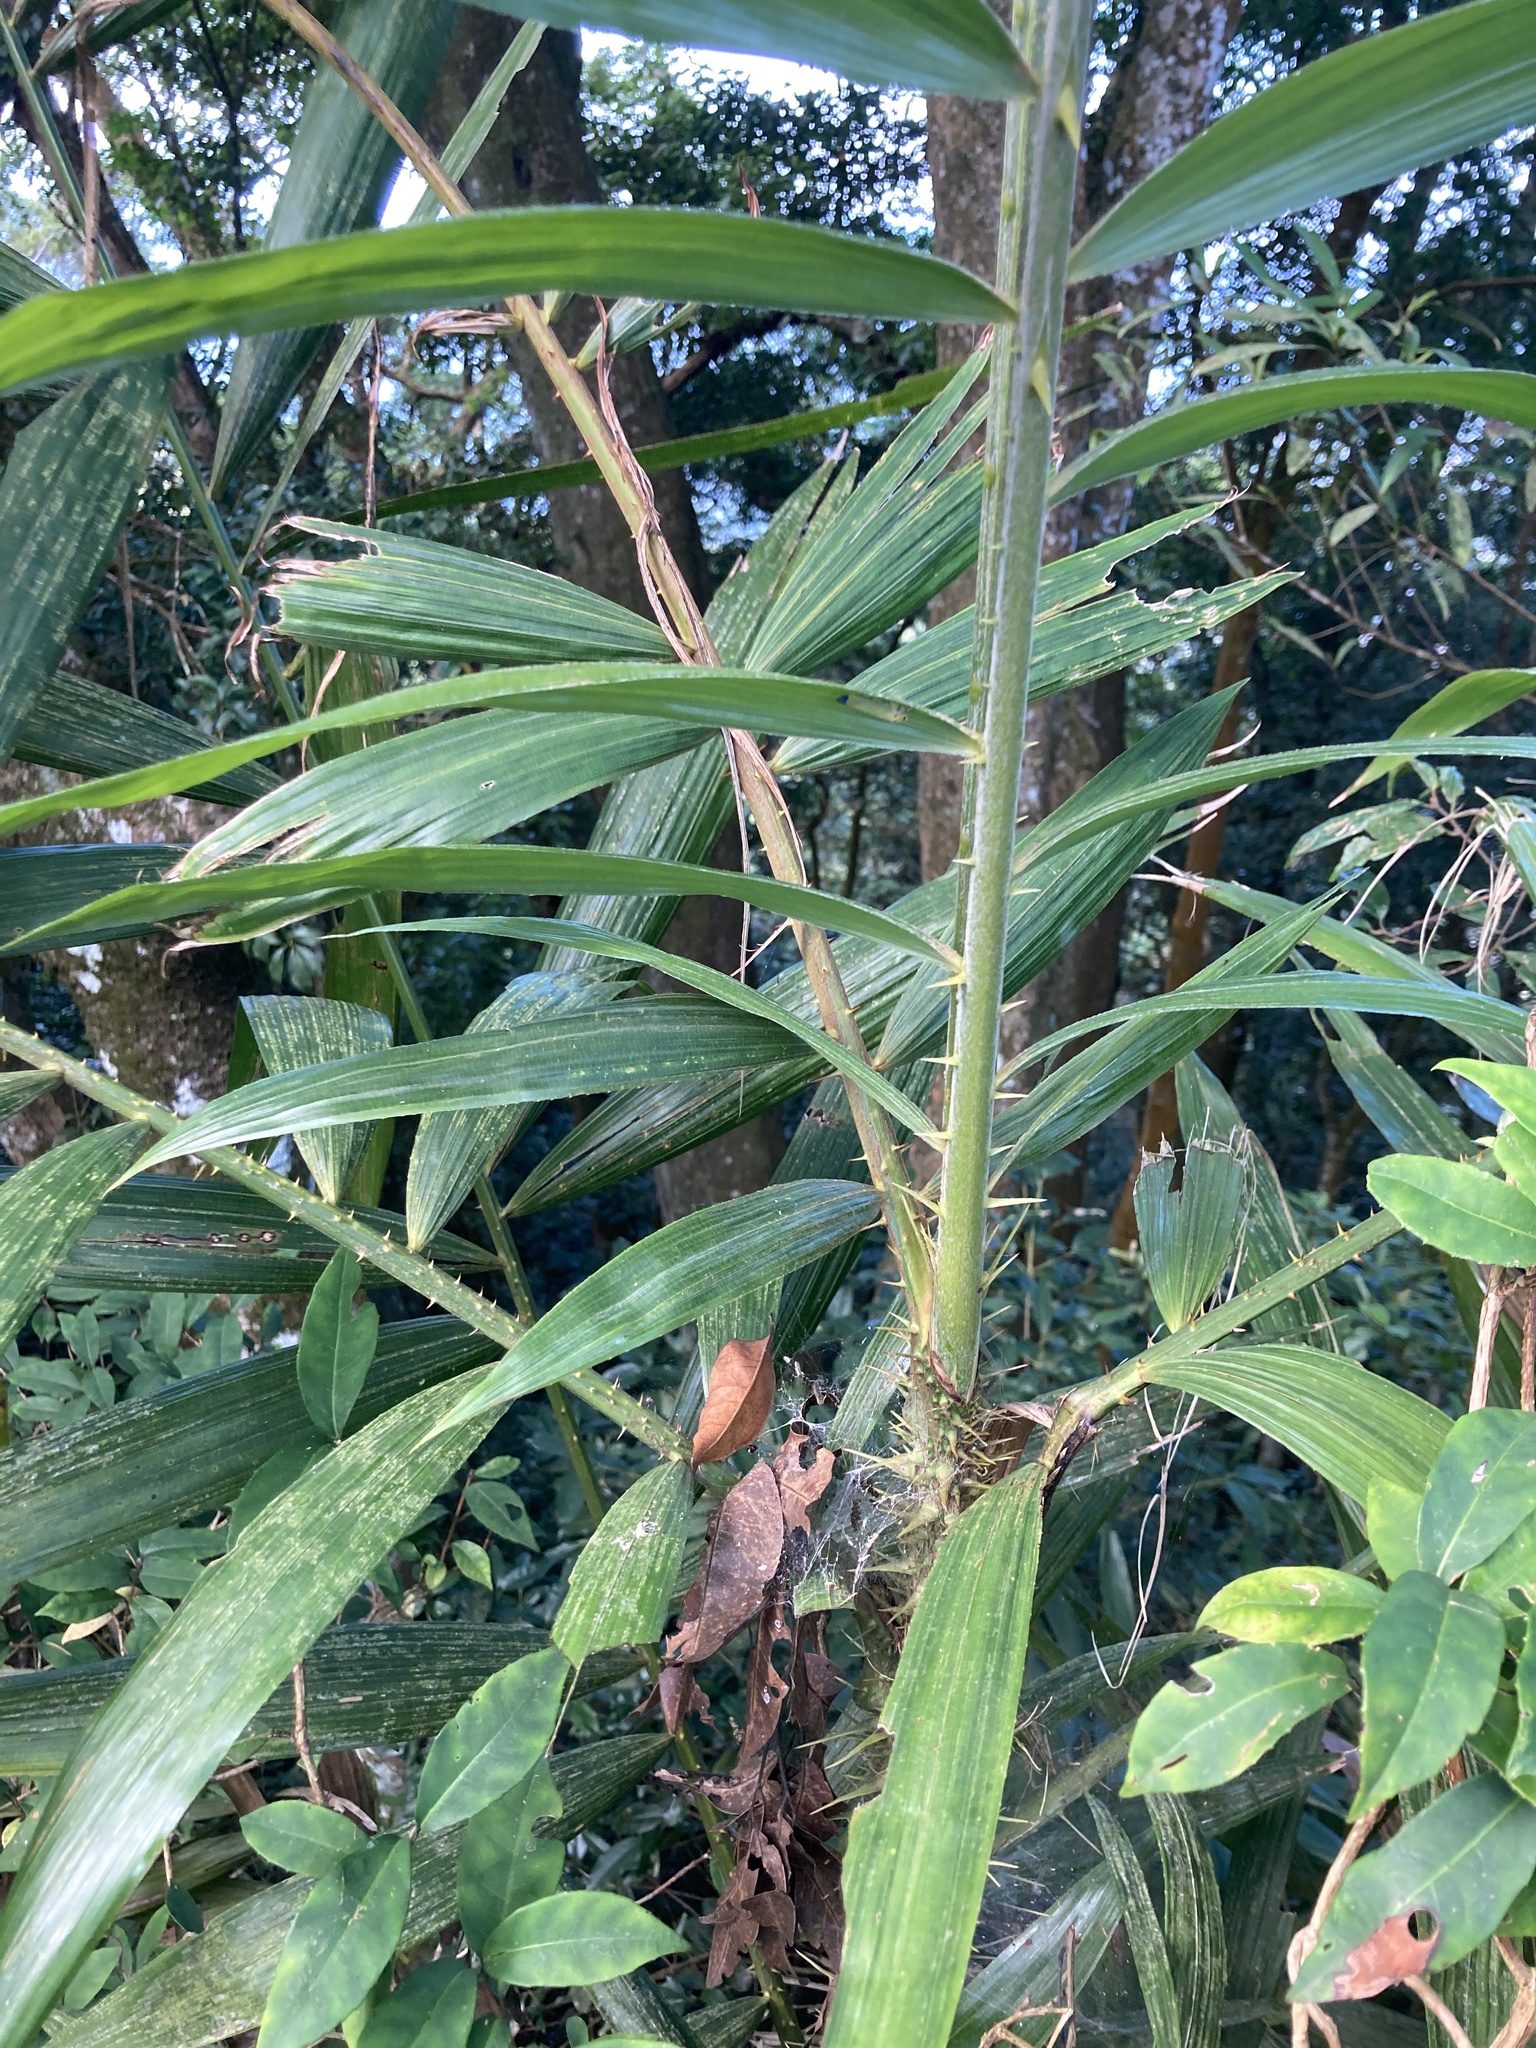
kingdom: Plantae
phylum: Tracheophyta
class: Liliopsida
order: Arecales
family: Arecaceae
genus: Calamus
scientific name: Calamus formosanus
